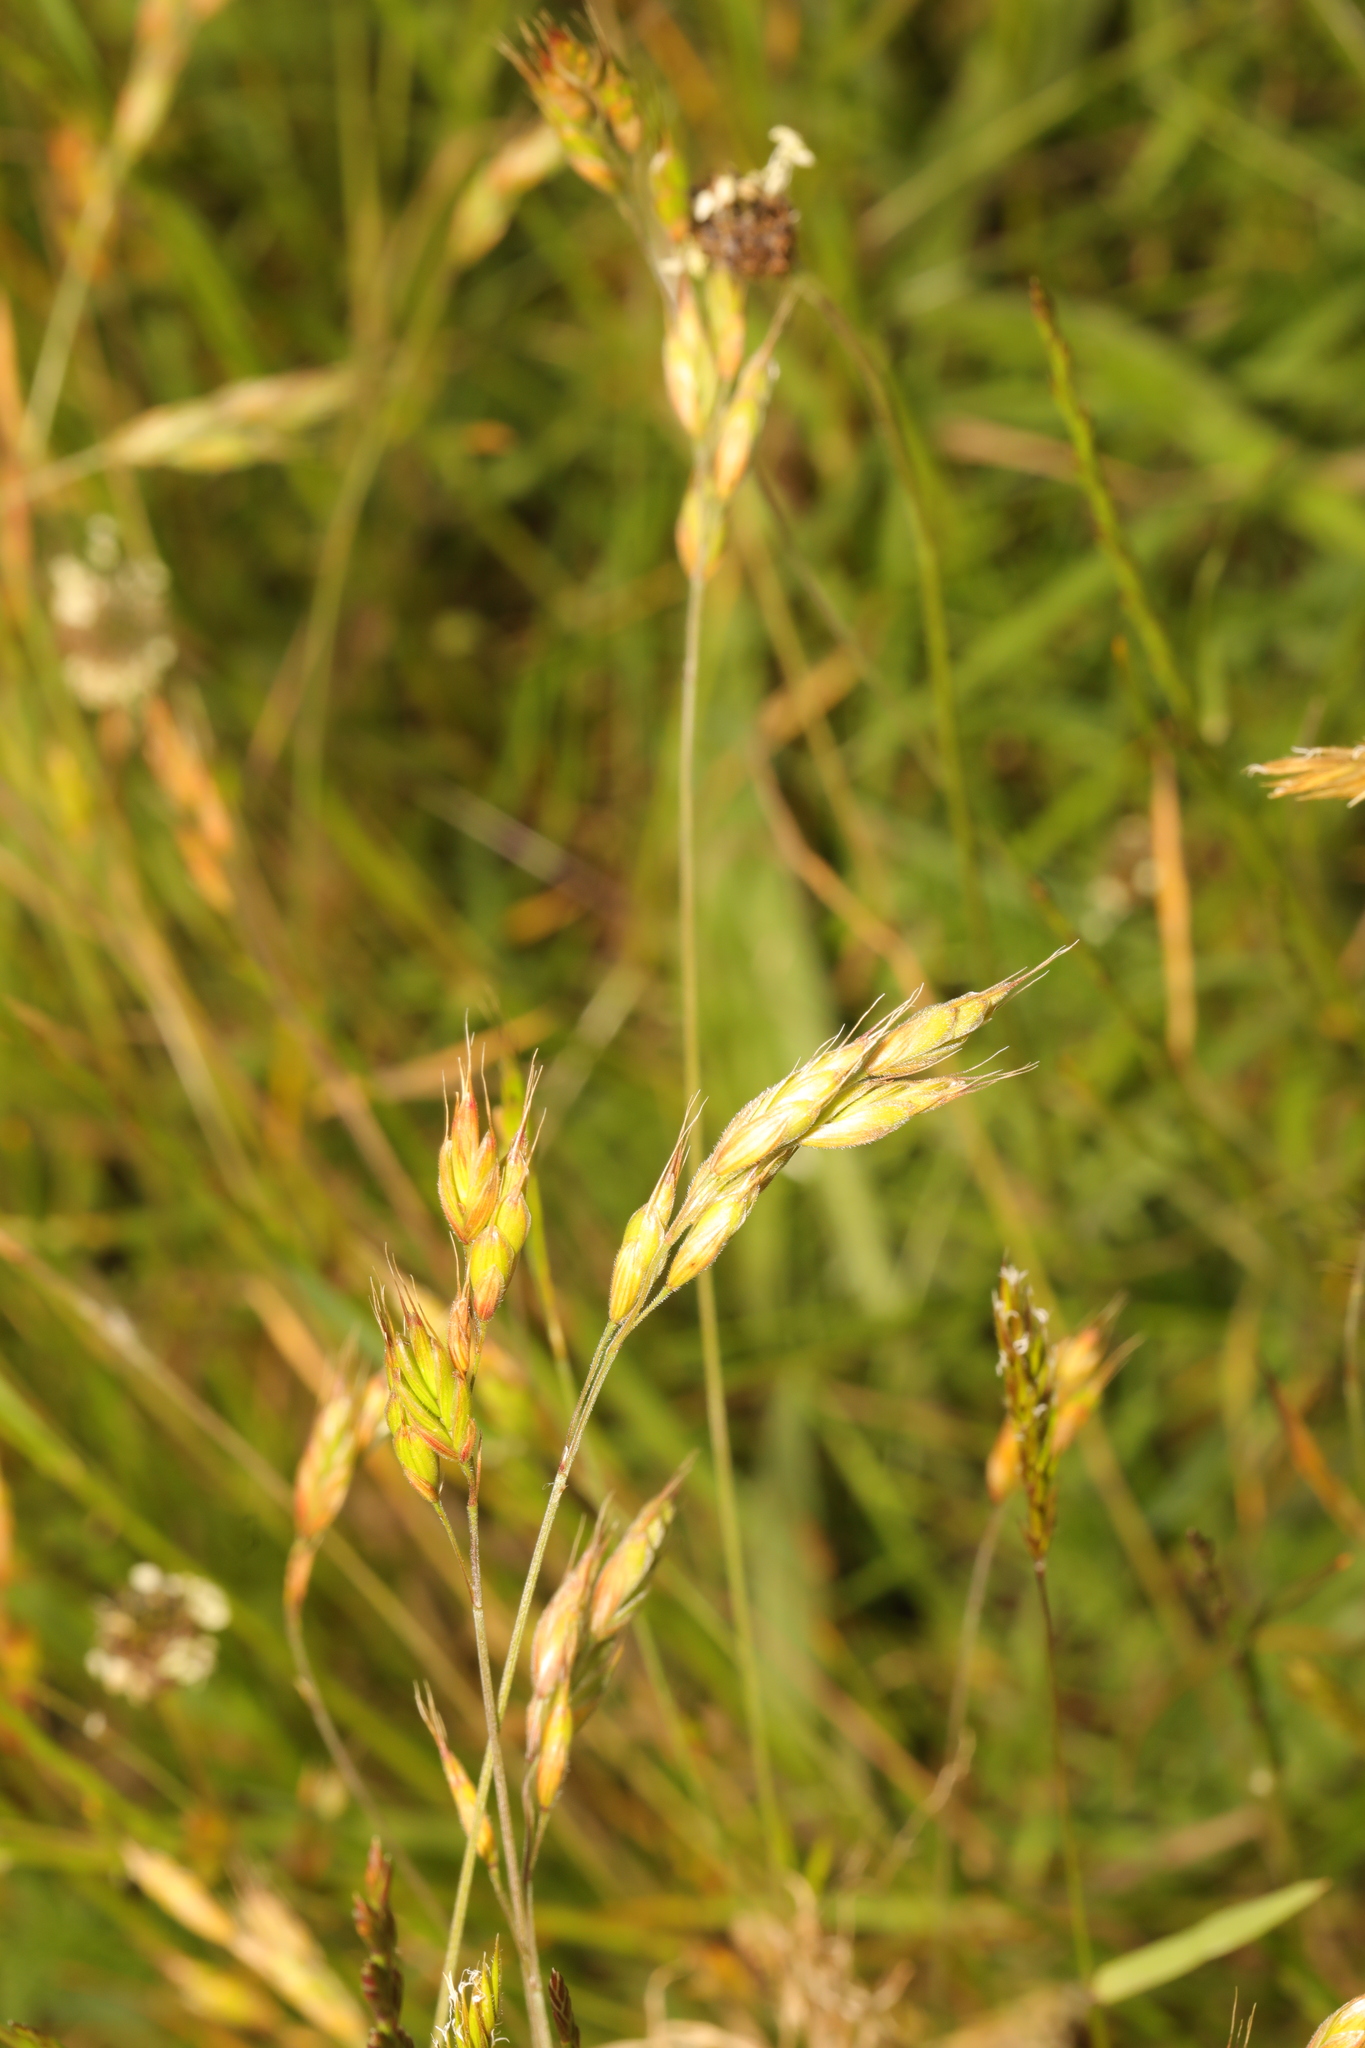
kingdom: Plantae
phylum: Tracheophyta
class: Liliopsida
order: Poales
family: Poaceae
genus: Bromus
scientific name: Bromus hordeaceus
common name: Soft brome
